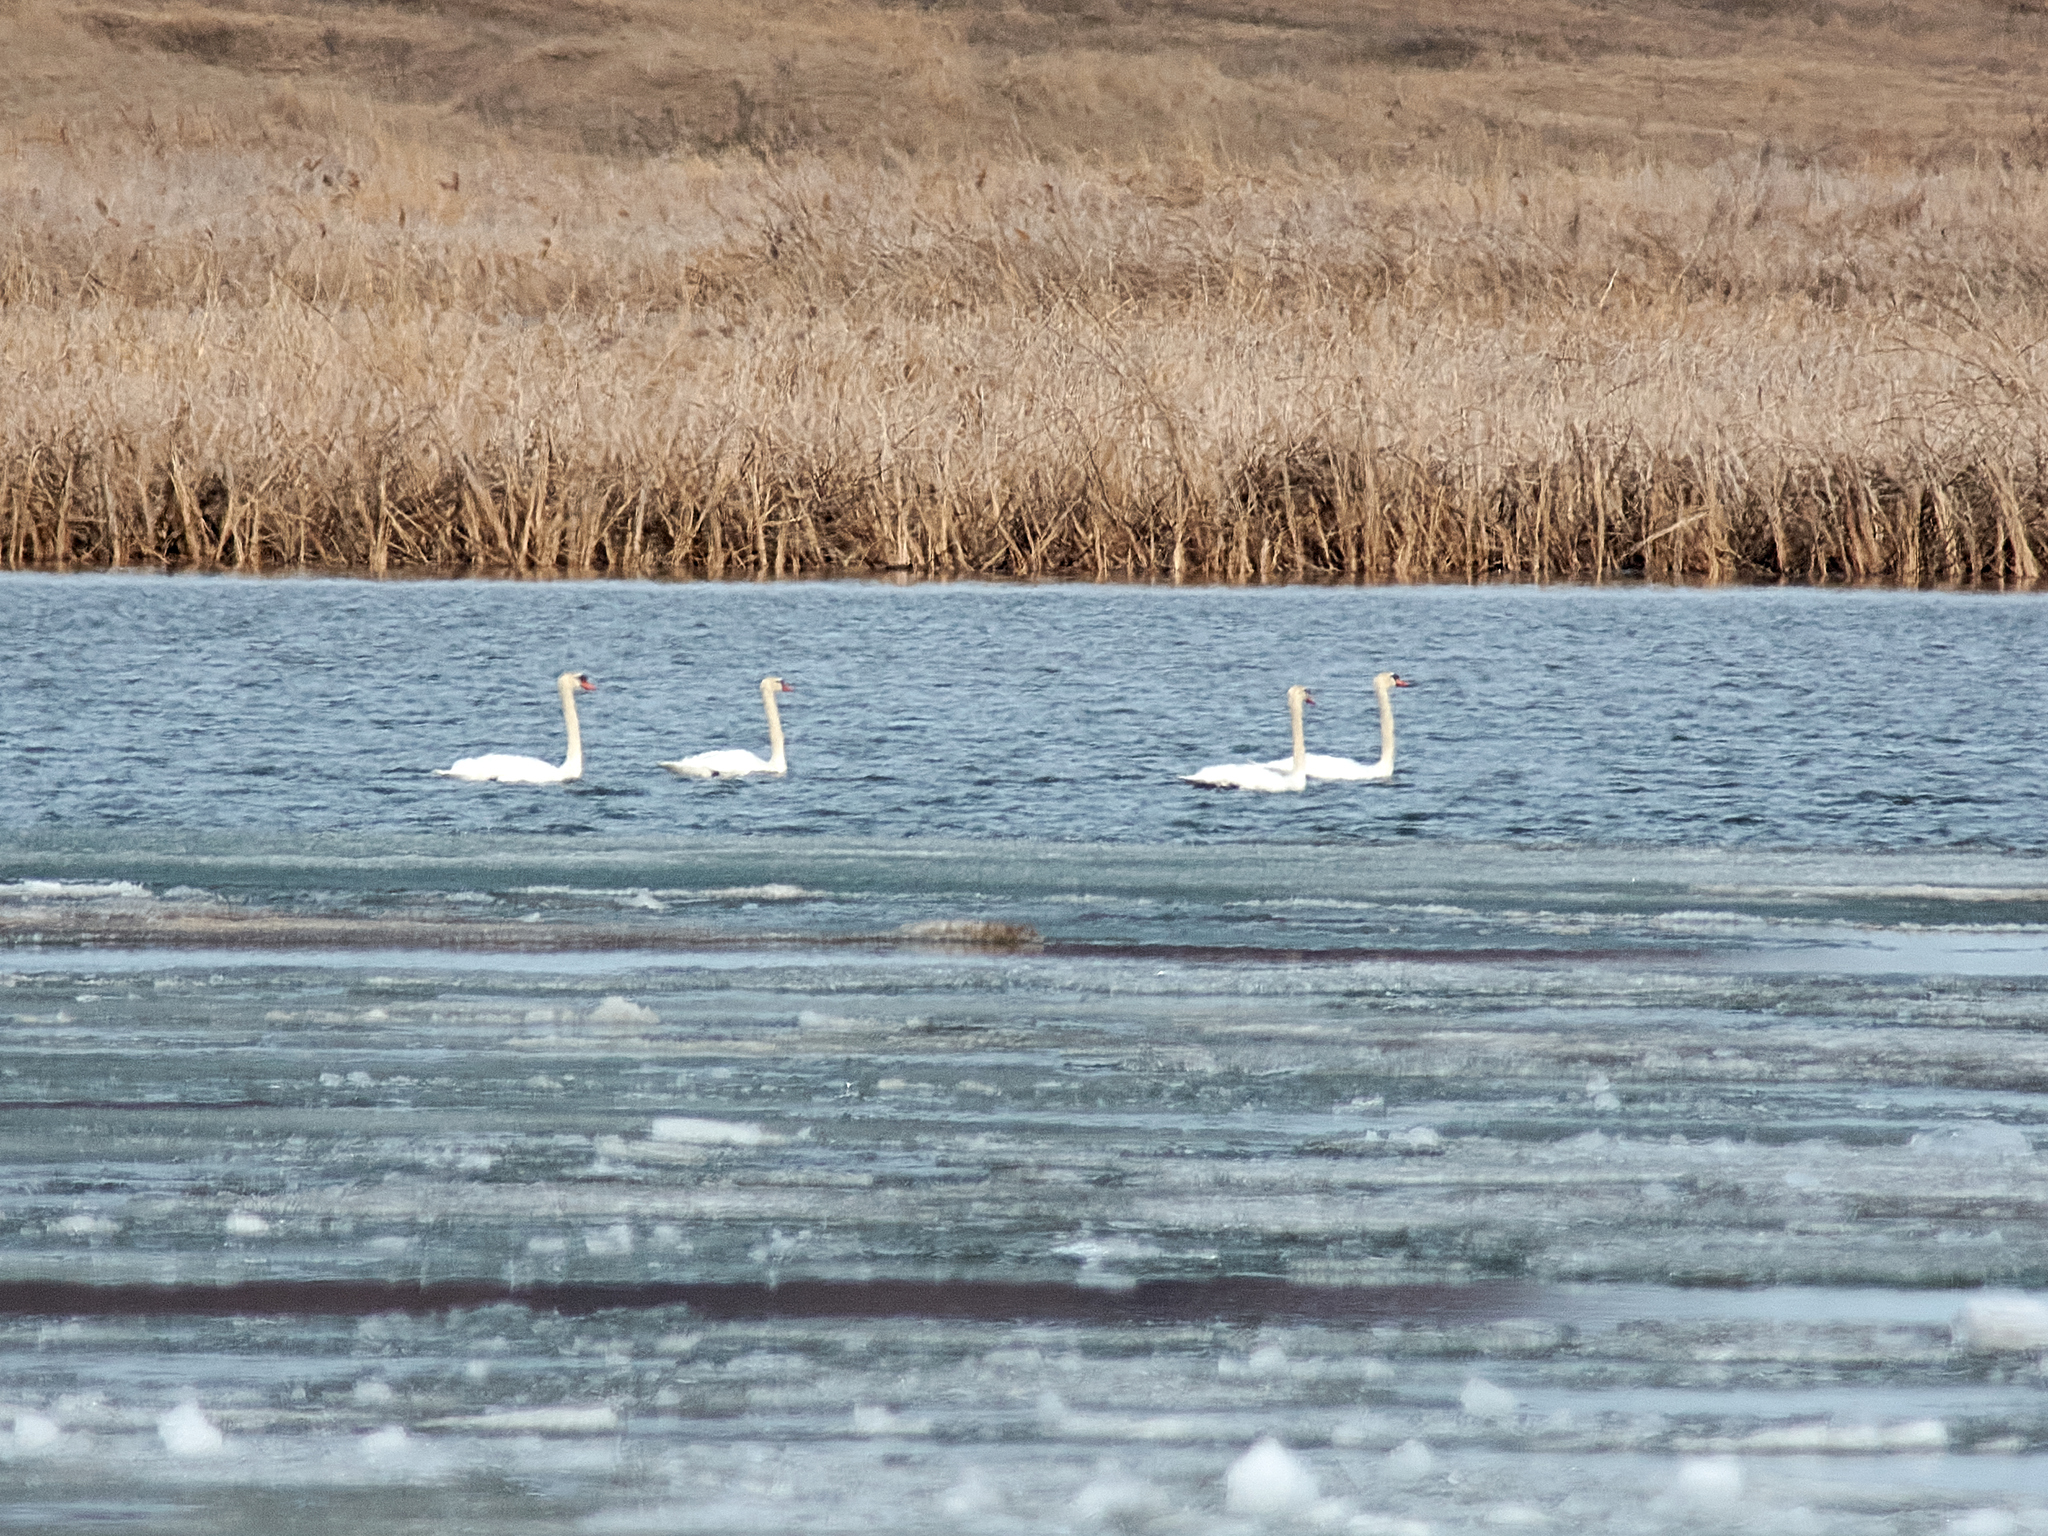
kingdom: Animalia
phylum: Chordata
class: Aves
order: Anseriformes
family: Anatidae
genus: Cygnus
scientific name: Cygnus olor
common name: Mute swan
